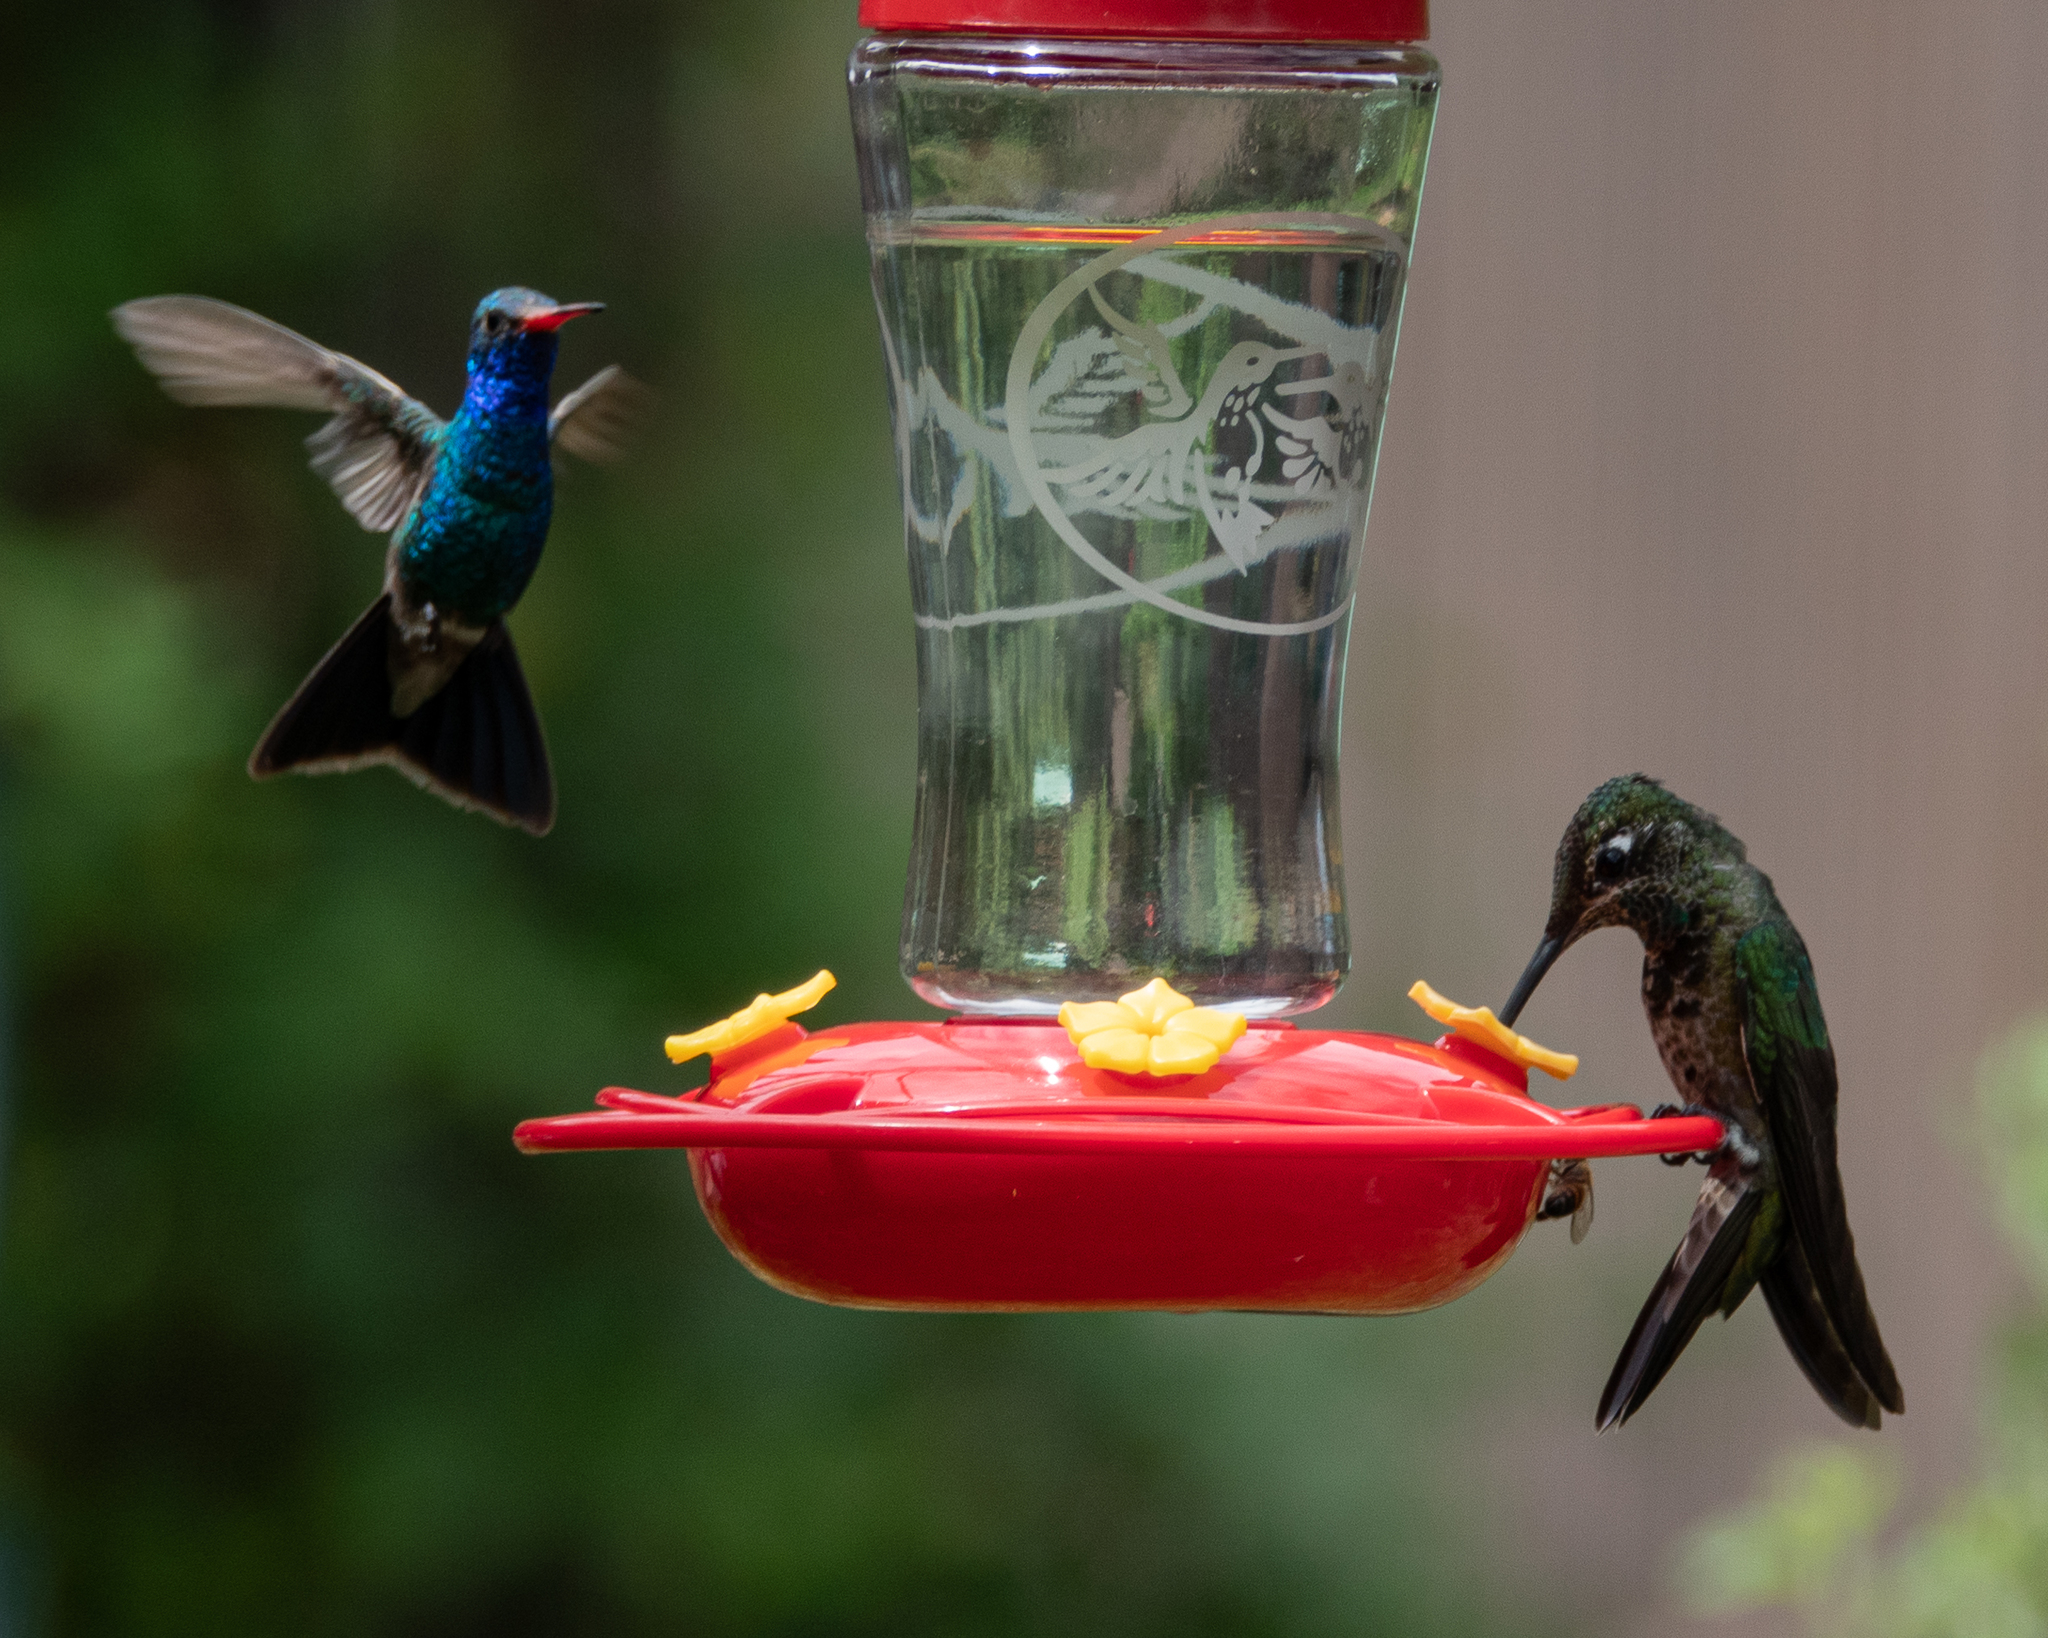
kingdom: Animalia
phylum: Chordata
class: Aves
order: Apodiformes
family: Trochilidae
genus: Eugenes
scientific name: Eugenes fulgens
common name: Magnificent hummingbird
